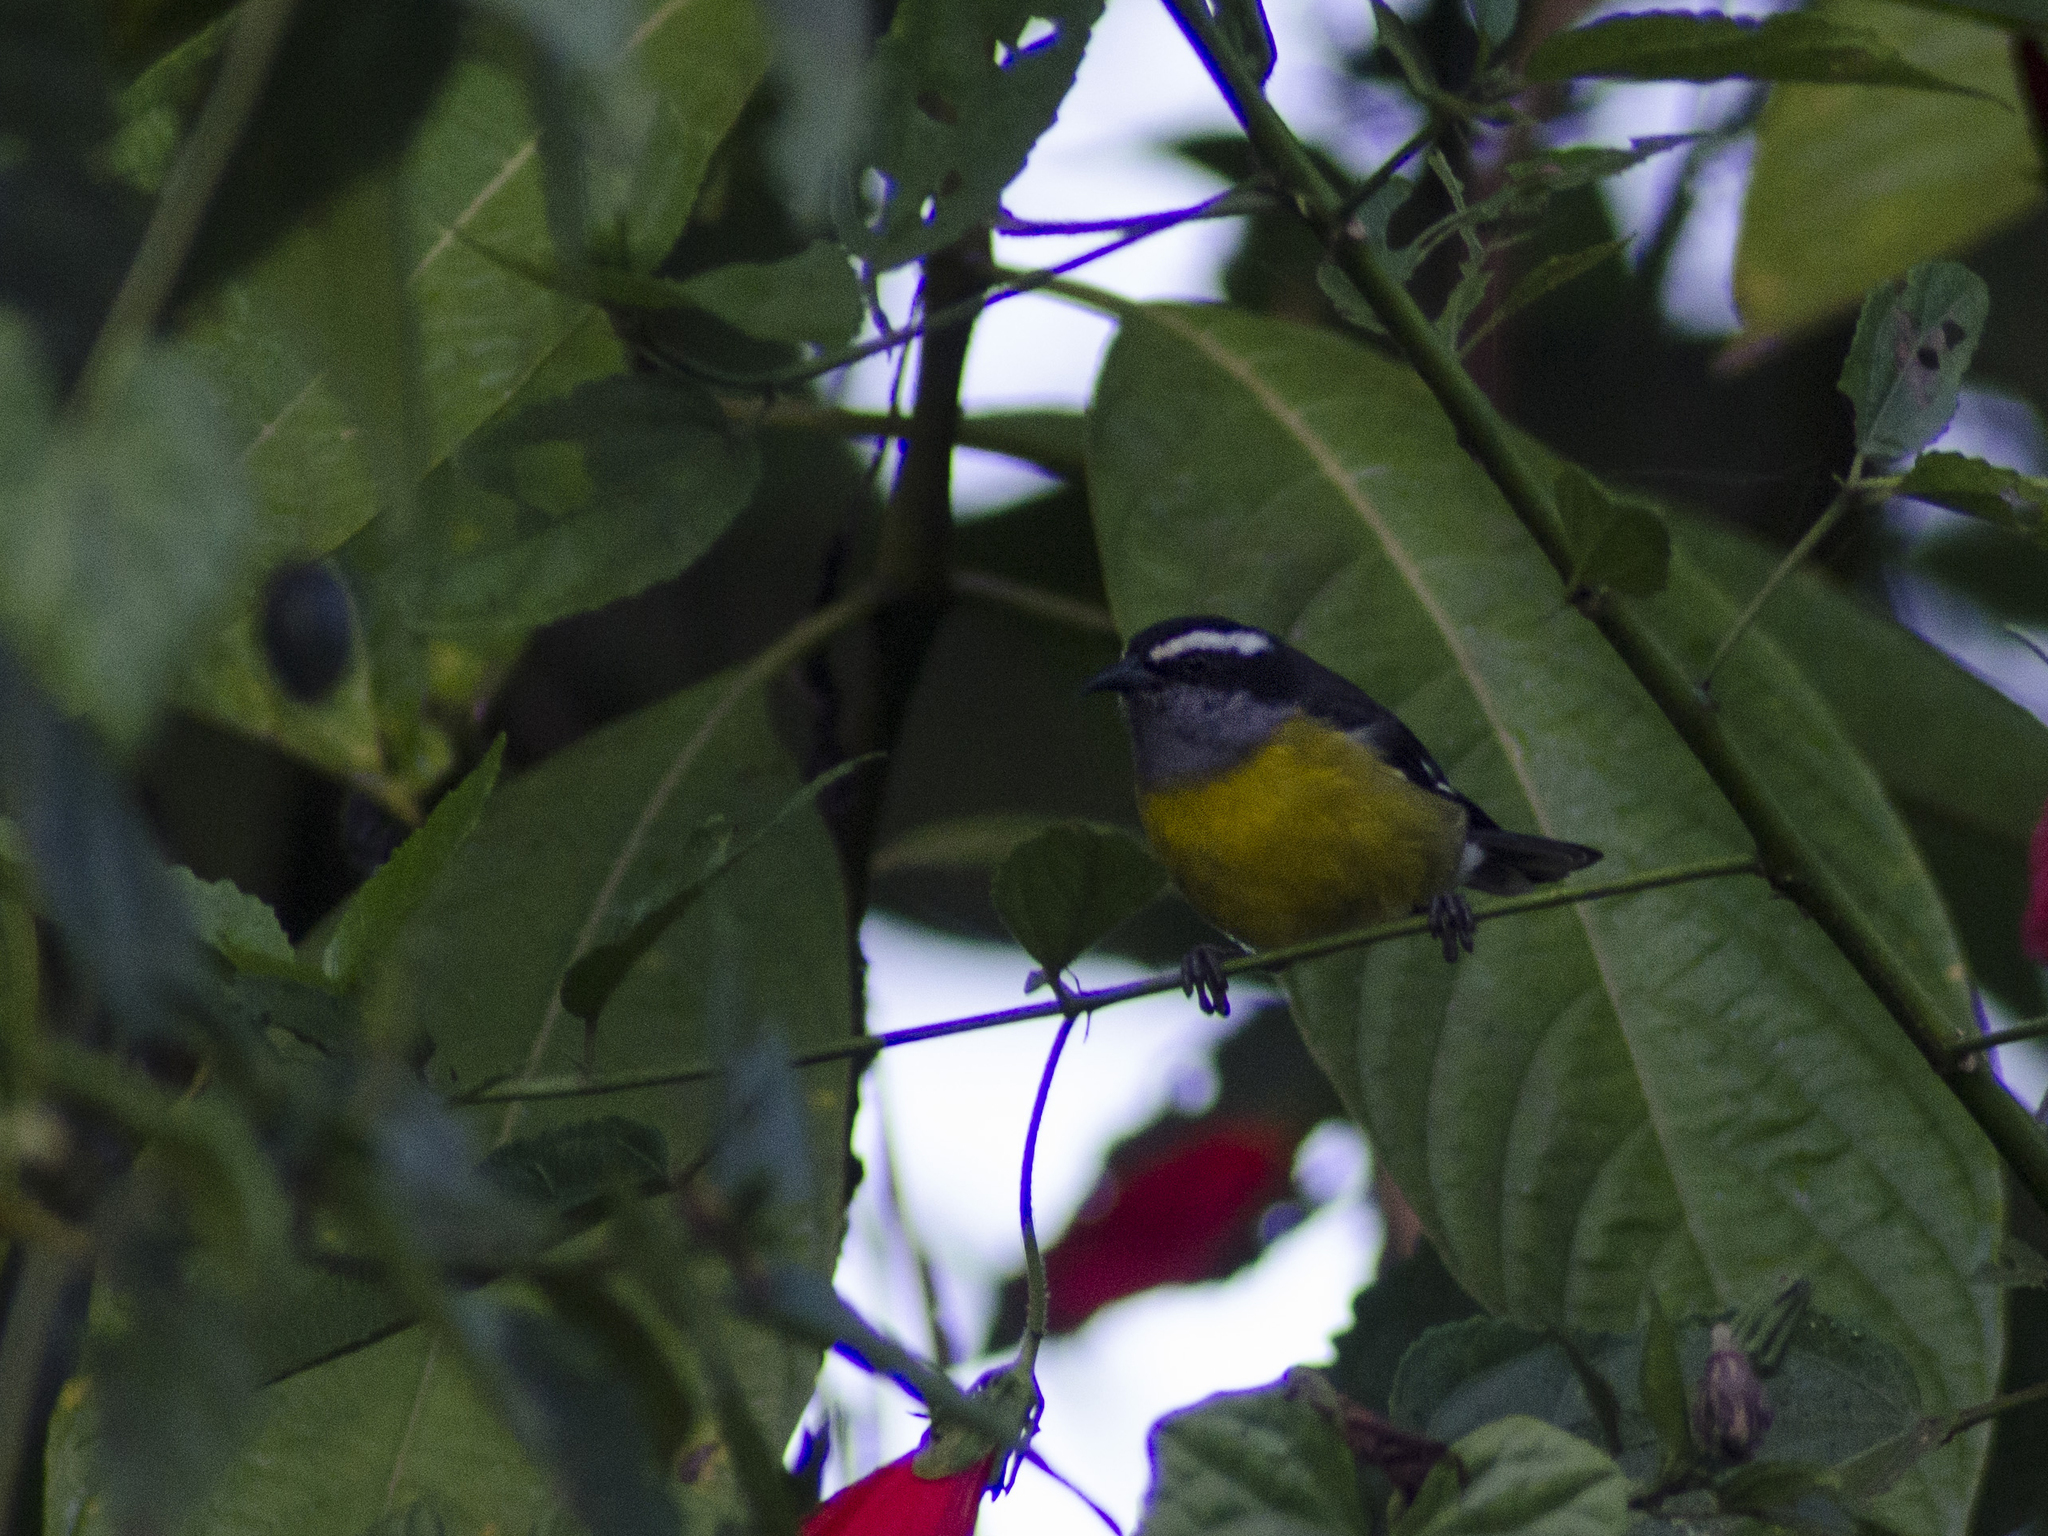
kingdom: Animalia
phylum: Chordata
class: Aves
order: Passeriformes
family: Thraupidae
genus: Coereba
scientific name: Coereba flaveola
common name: Bananaquit
